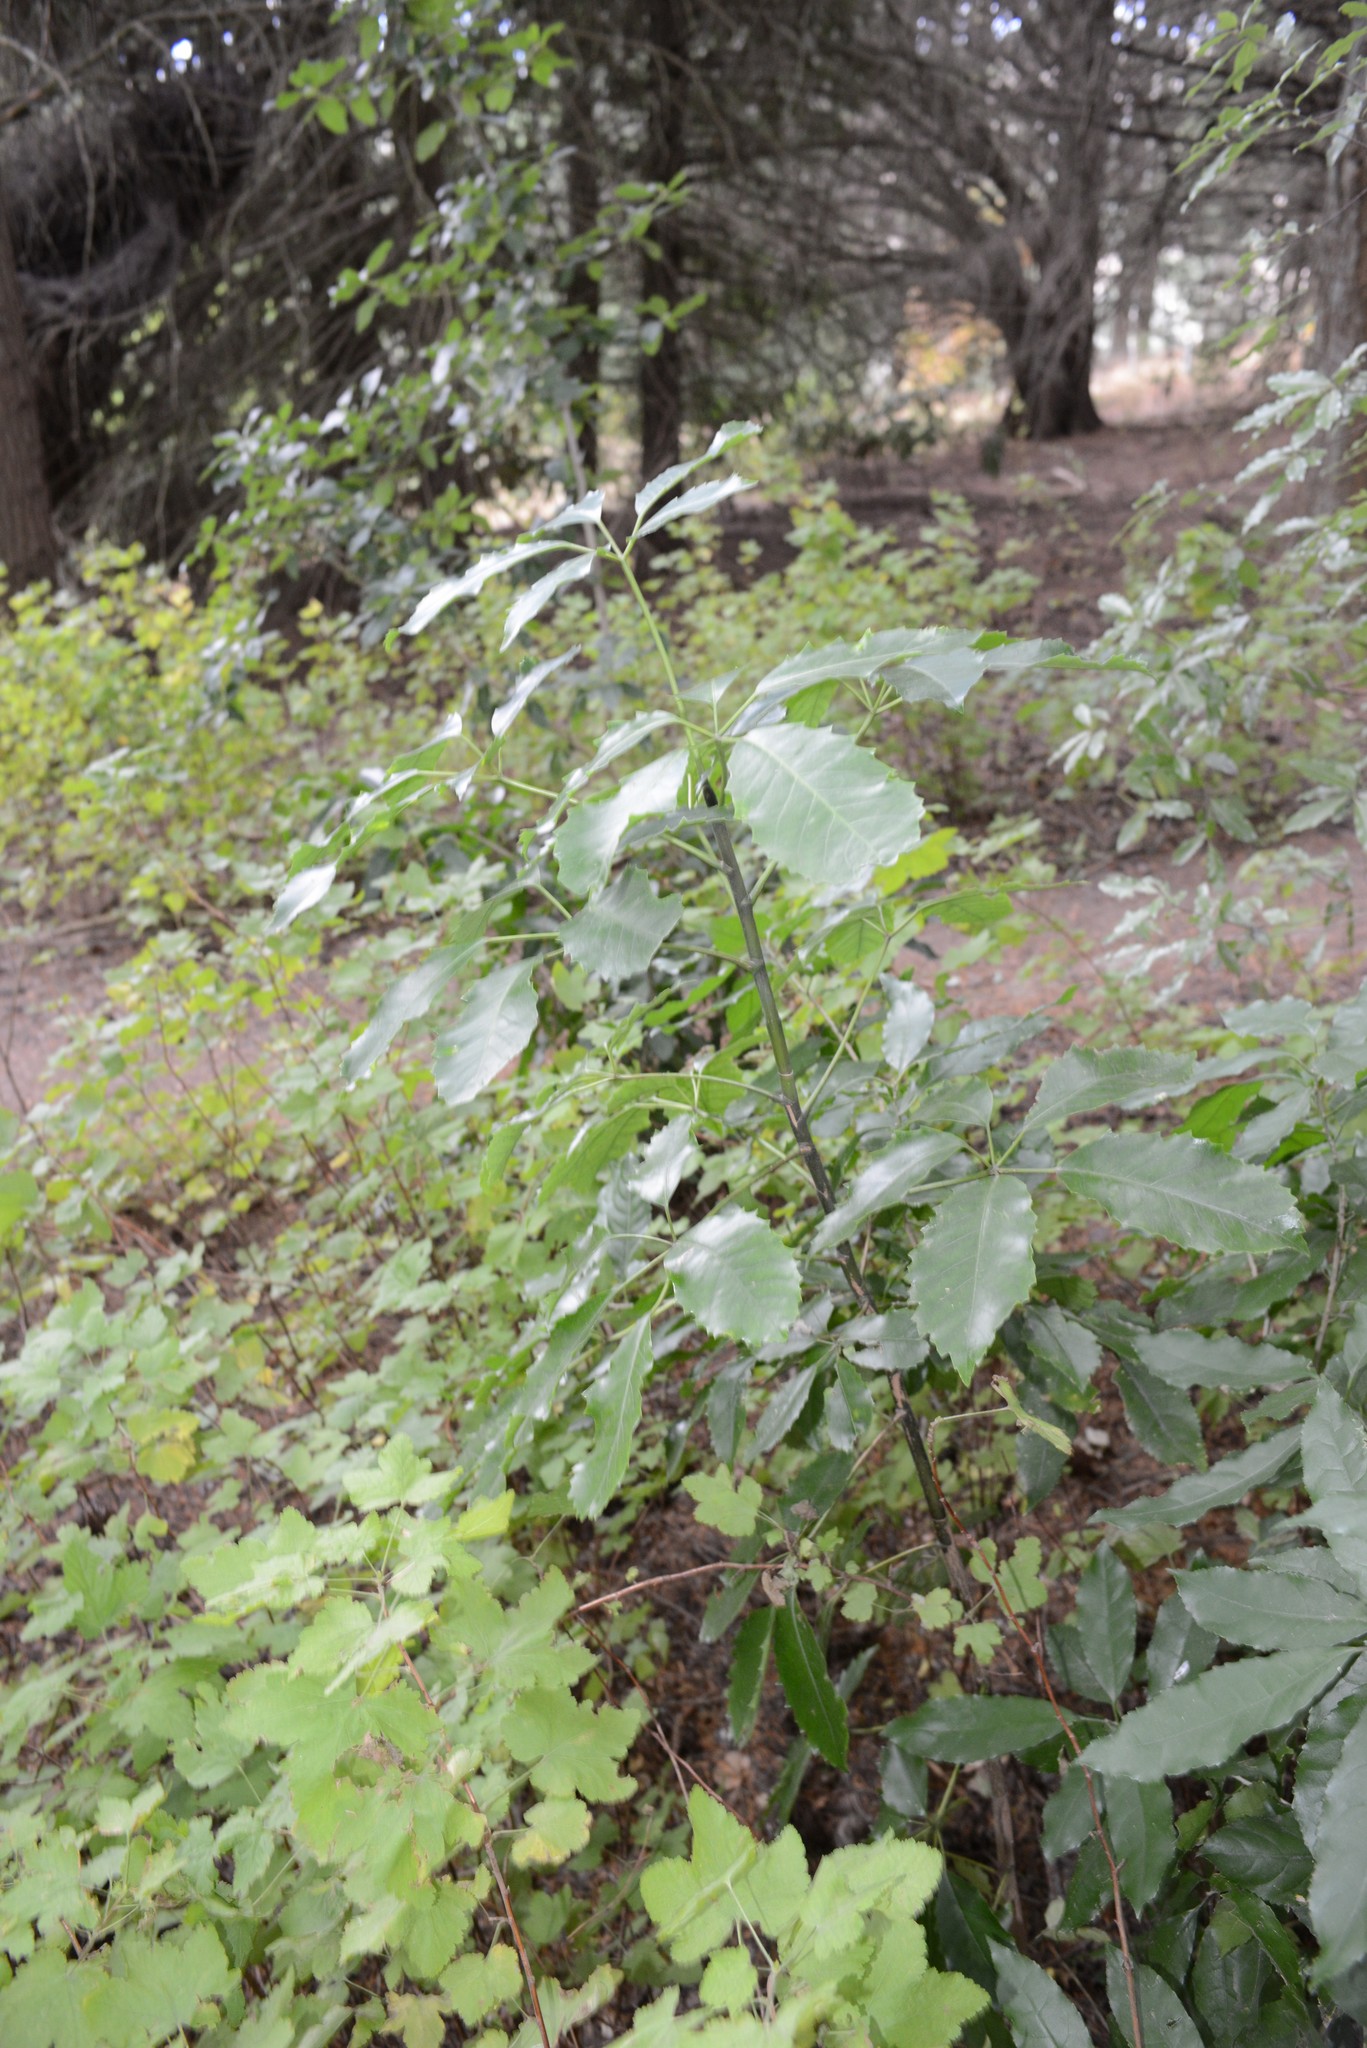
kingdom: Plantae
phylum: Tracheophyta
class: Magnoliopsida
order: Apiales
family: Araliaceae
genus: Neopanax
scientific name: Neopanax arboreus
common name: Five-fingers
